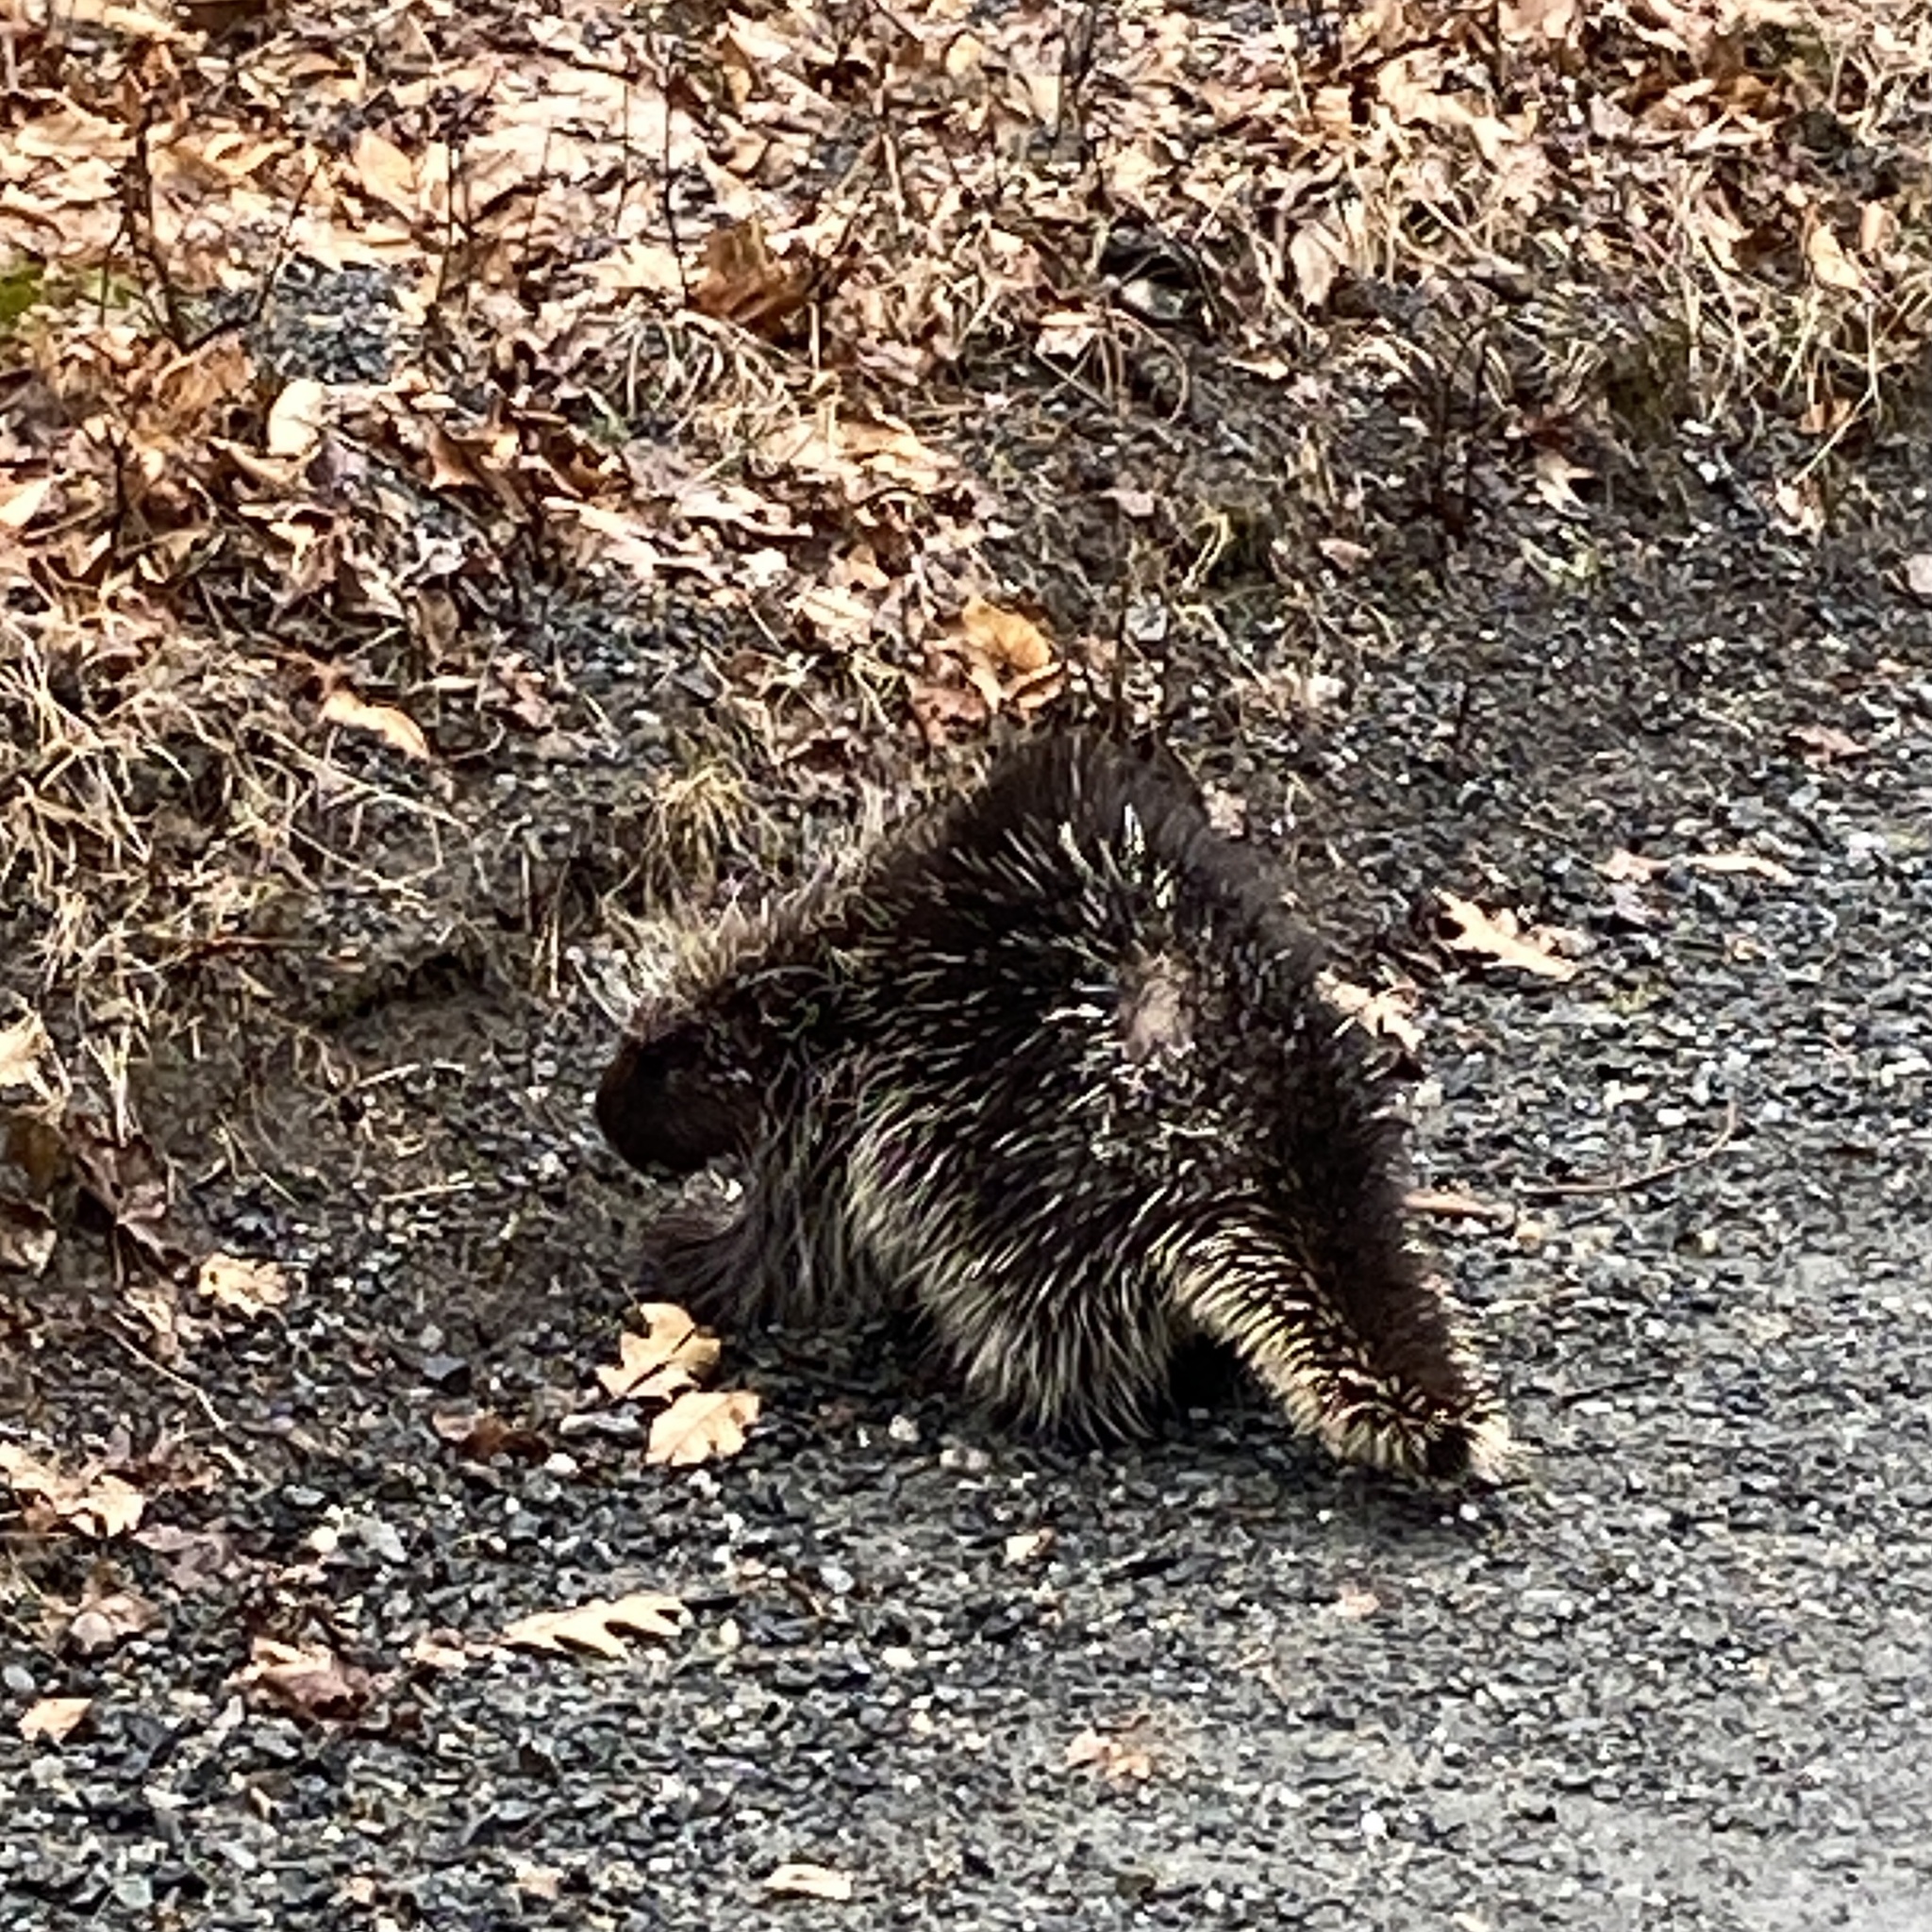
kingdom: Animalia
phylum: Chordata
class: Mammalia
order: Rodentia
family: Erethizontidae
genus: Erethizon
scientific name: Erethizon dorsatus
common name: North american porcupine
